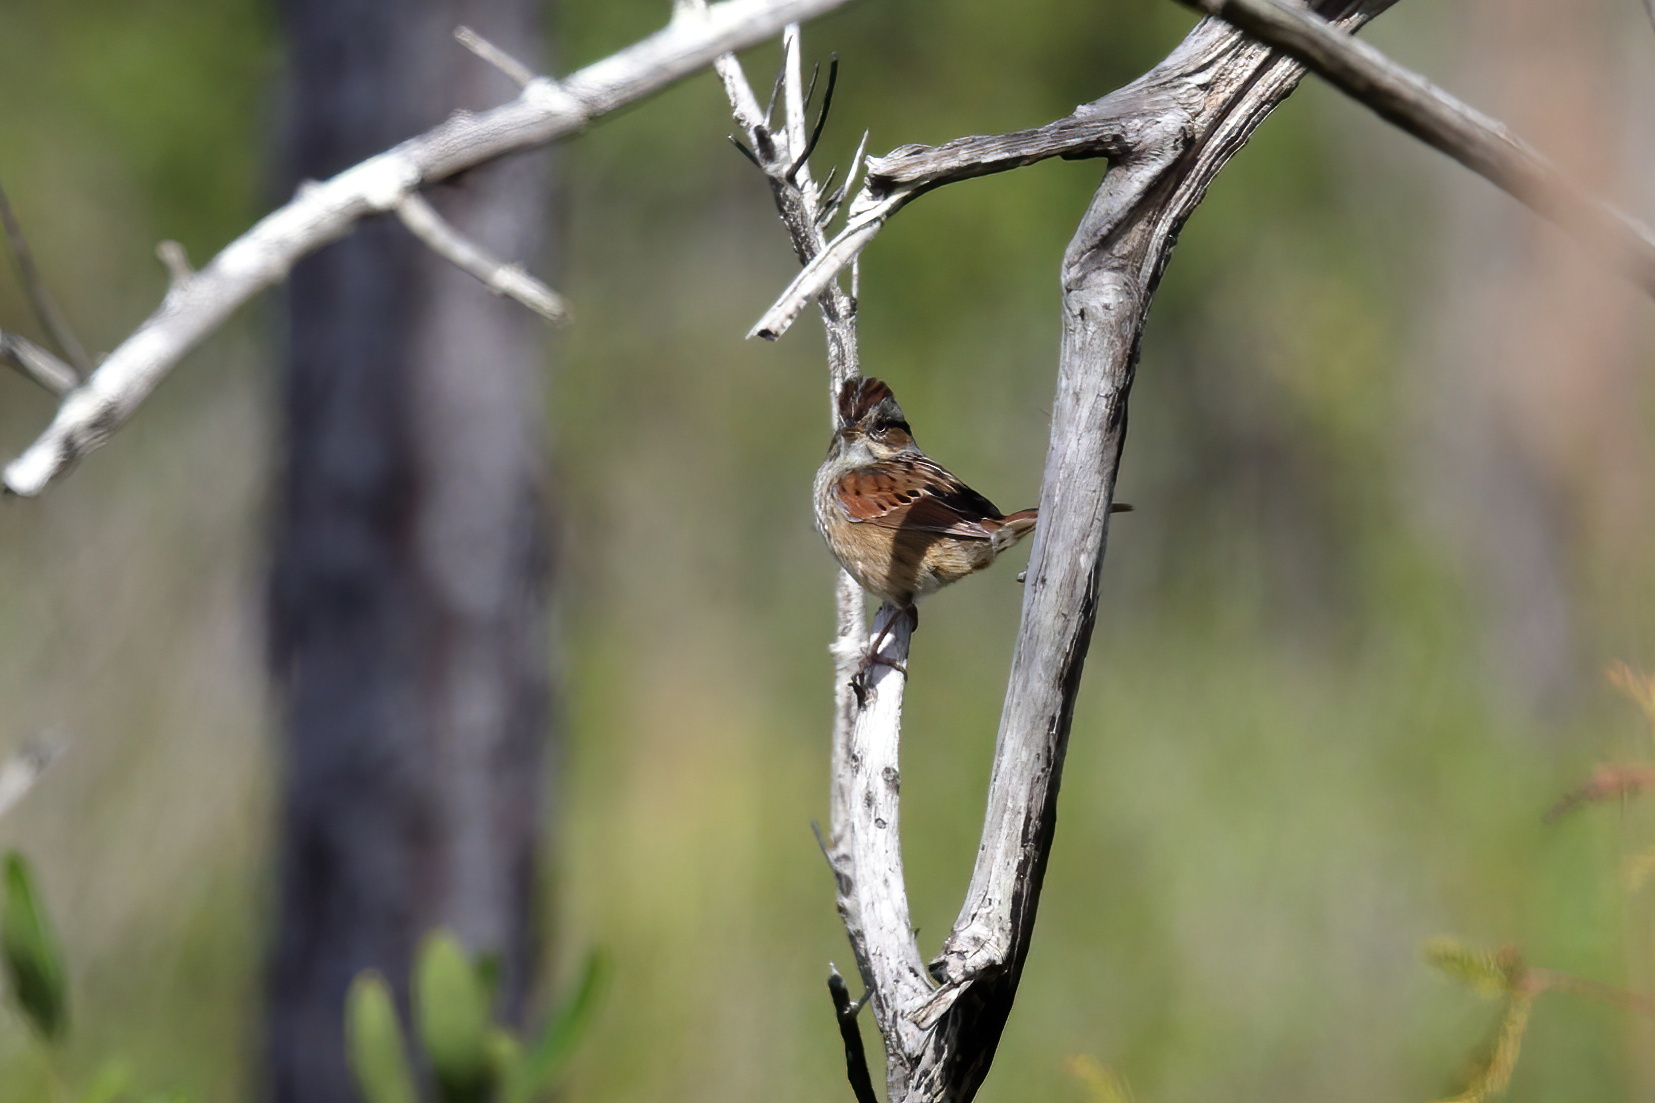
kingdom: Animalia
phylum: Chordata
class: Aves
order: Passeriformes
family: Passerellidae
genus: Melospiza
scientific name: Melospiza georgiana
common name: Swamp sparrow
